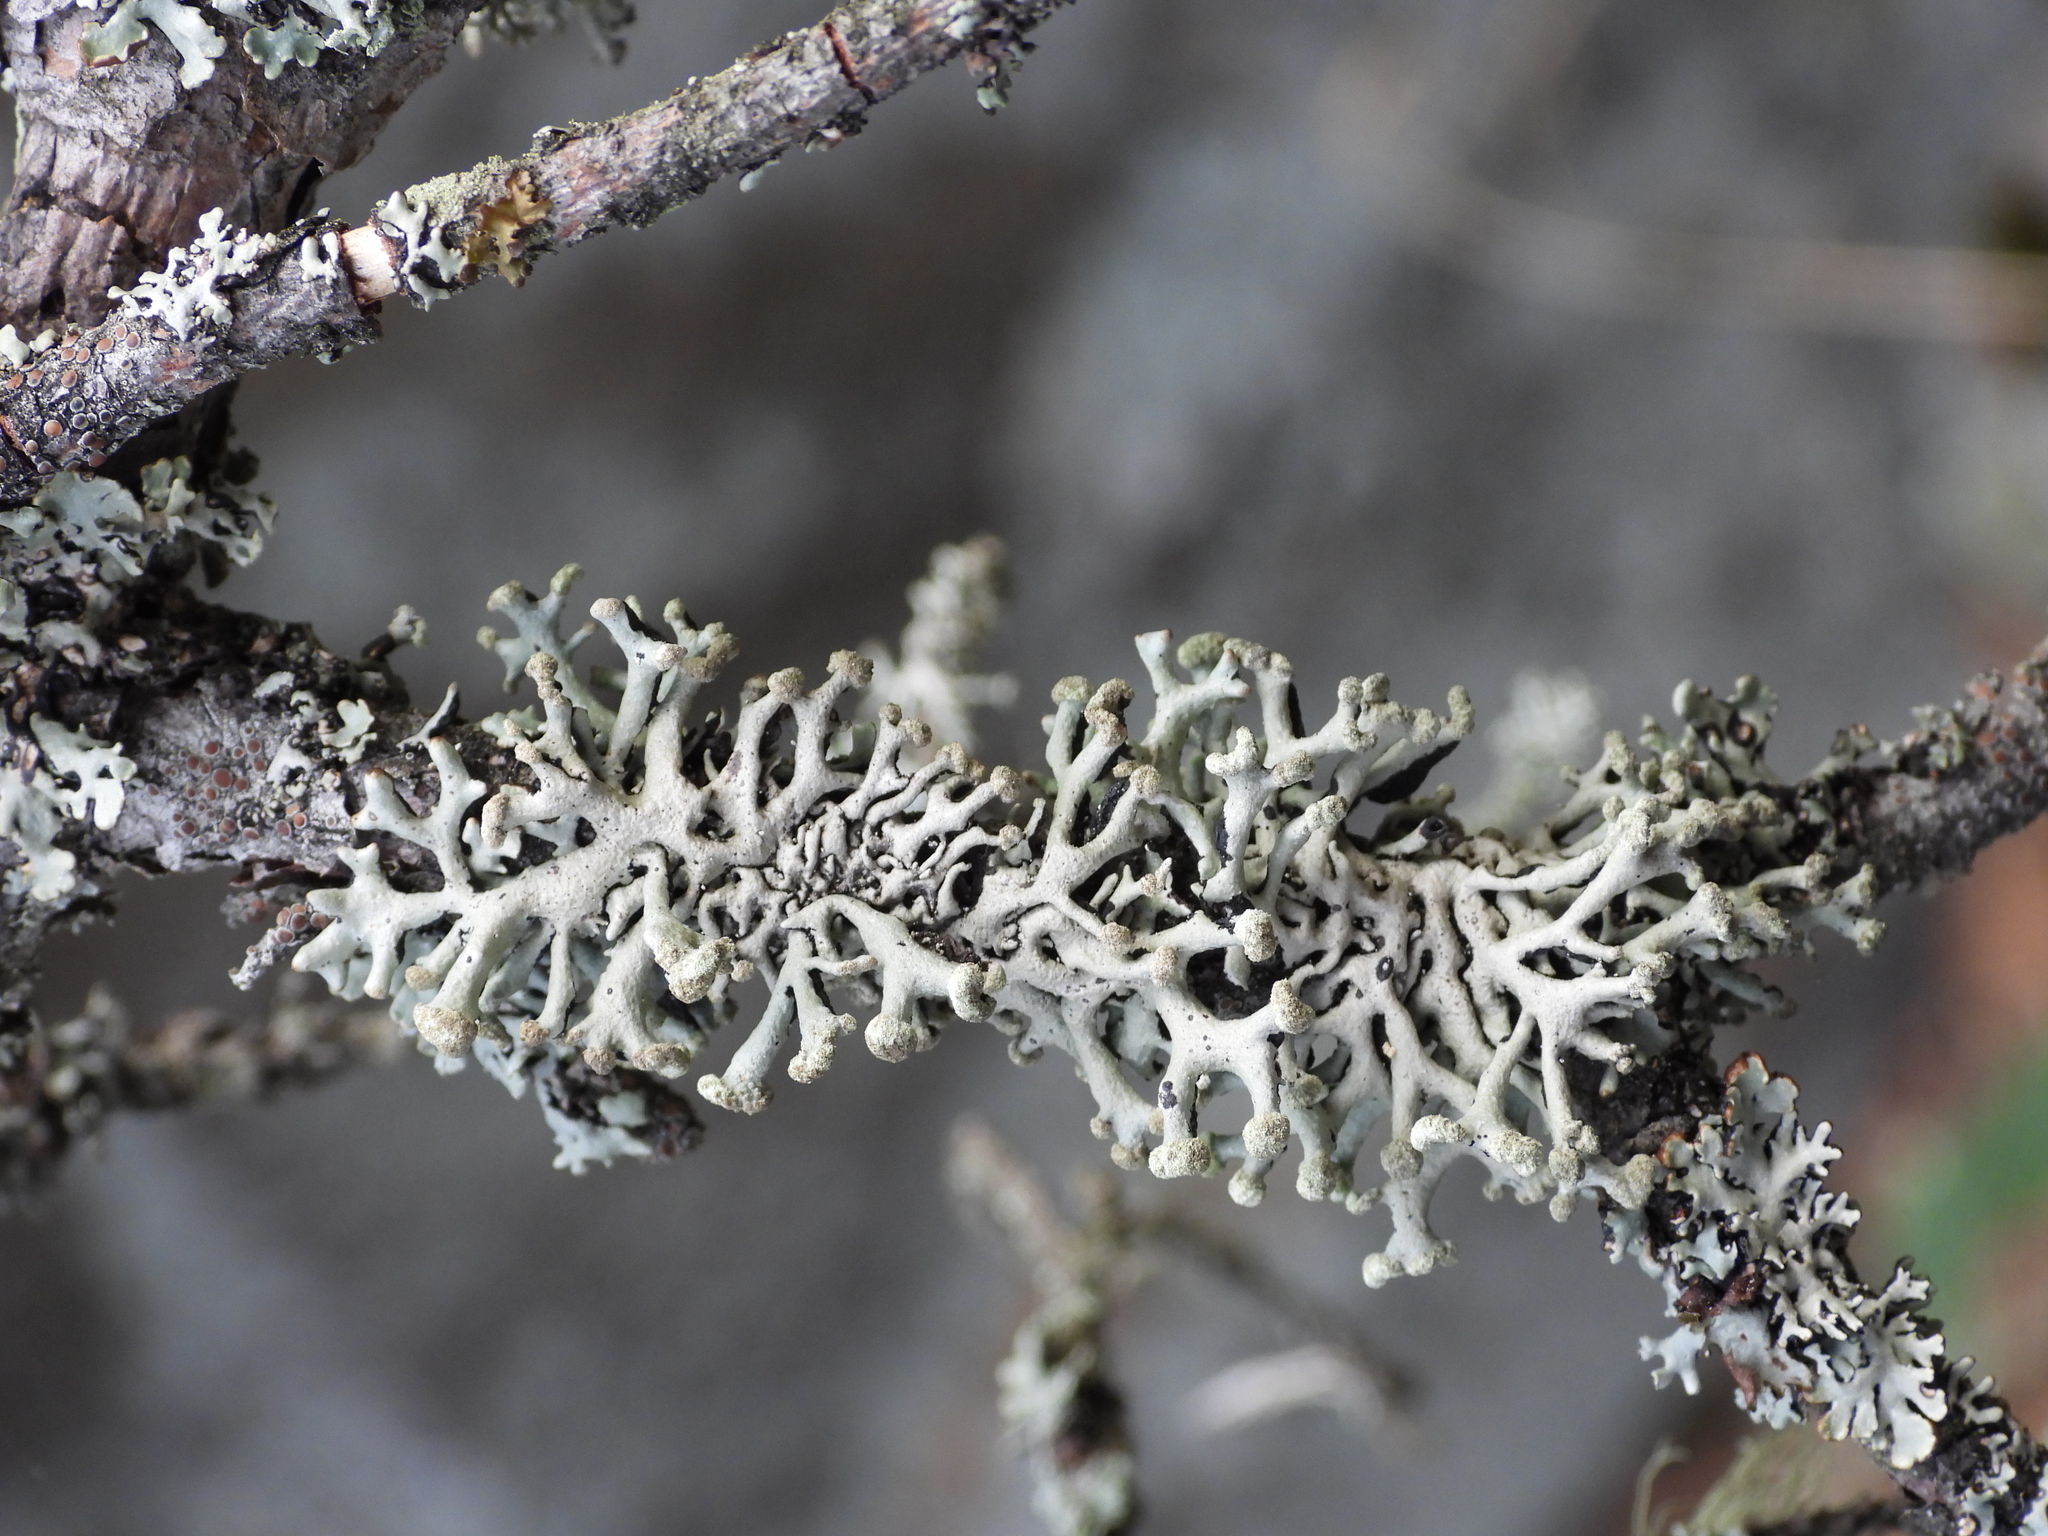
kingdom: Fungi
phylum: Ascomycota
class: Lecanoromycetes
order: Lecanorales
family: Parmeliaceae
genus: Hypogymnia
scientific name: Hypogymnia tubulosa
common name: Powder-headed tube lichen
